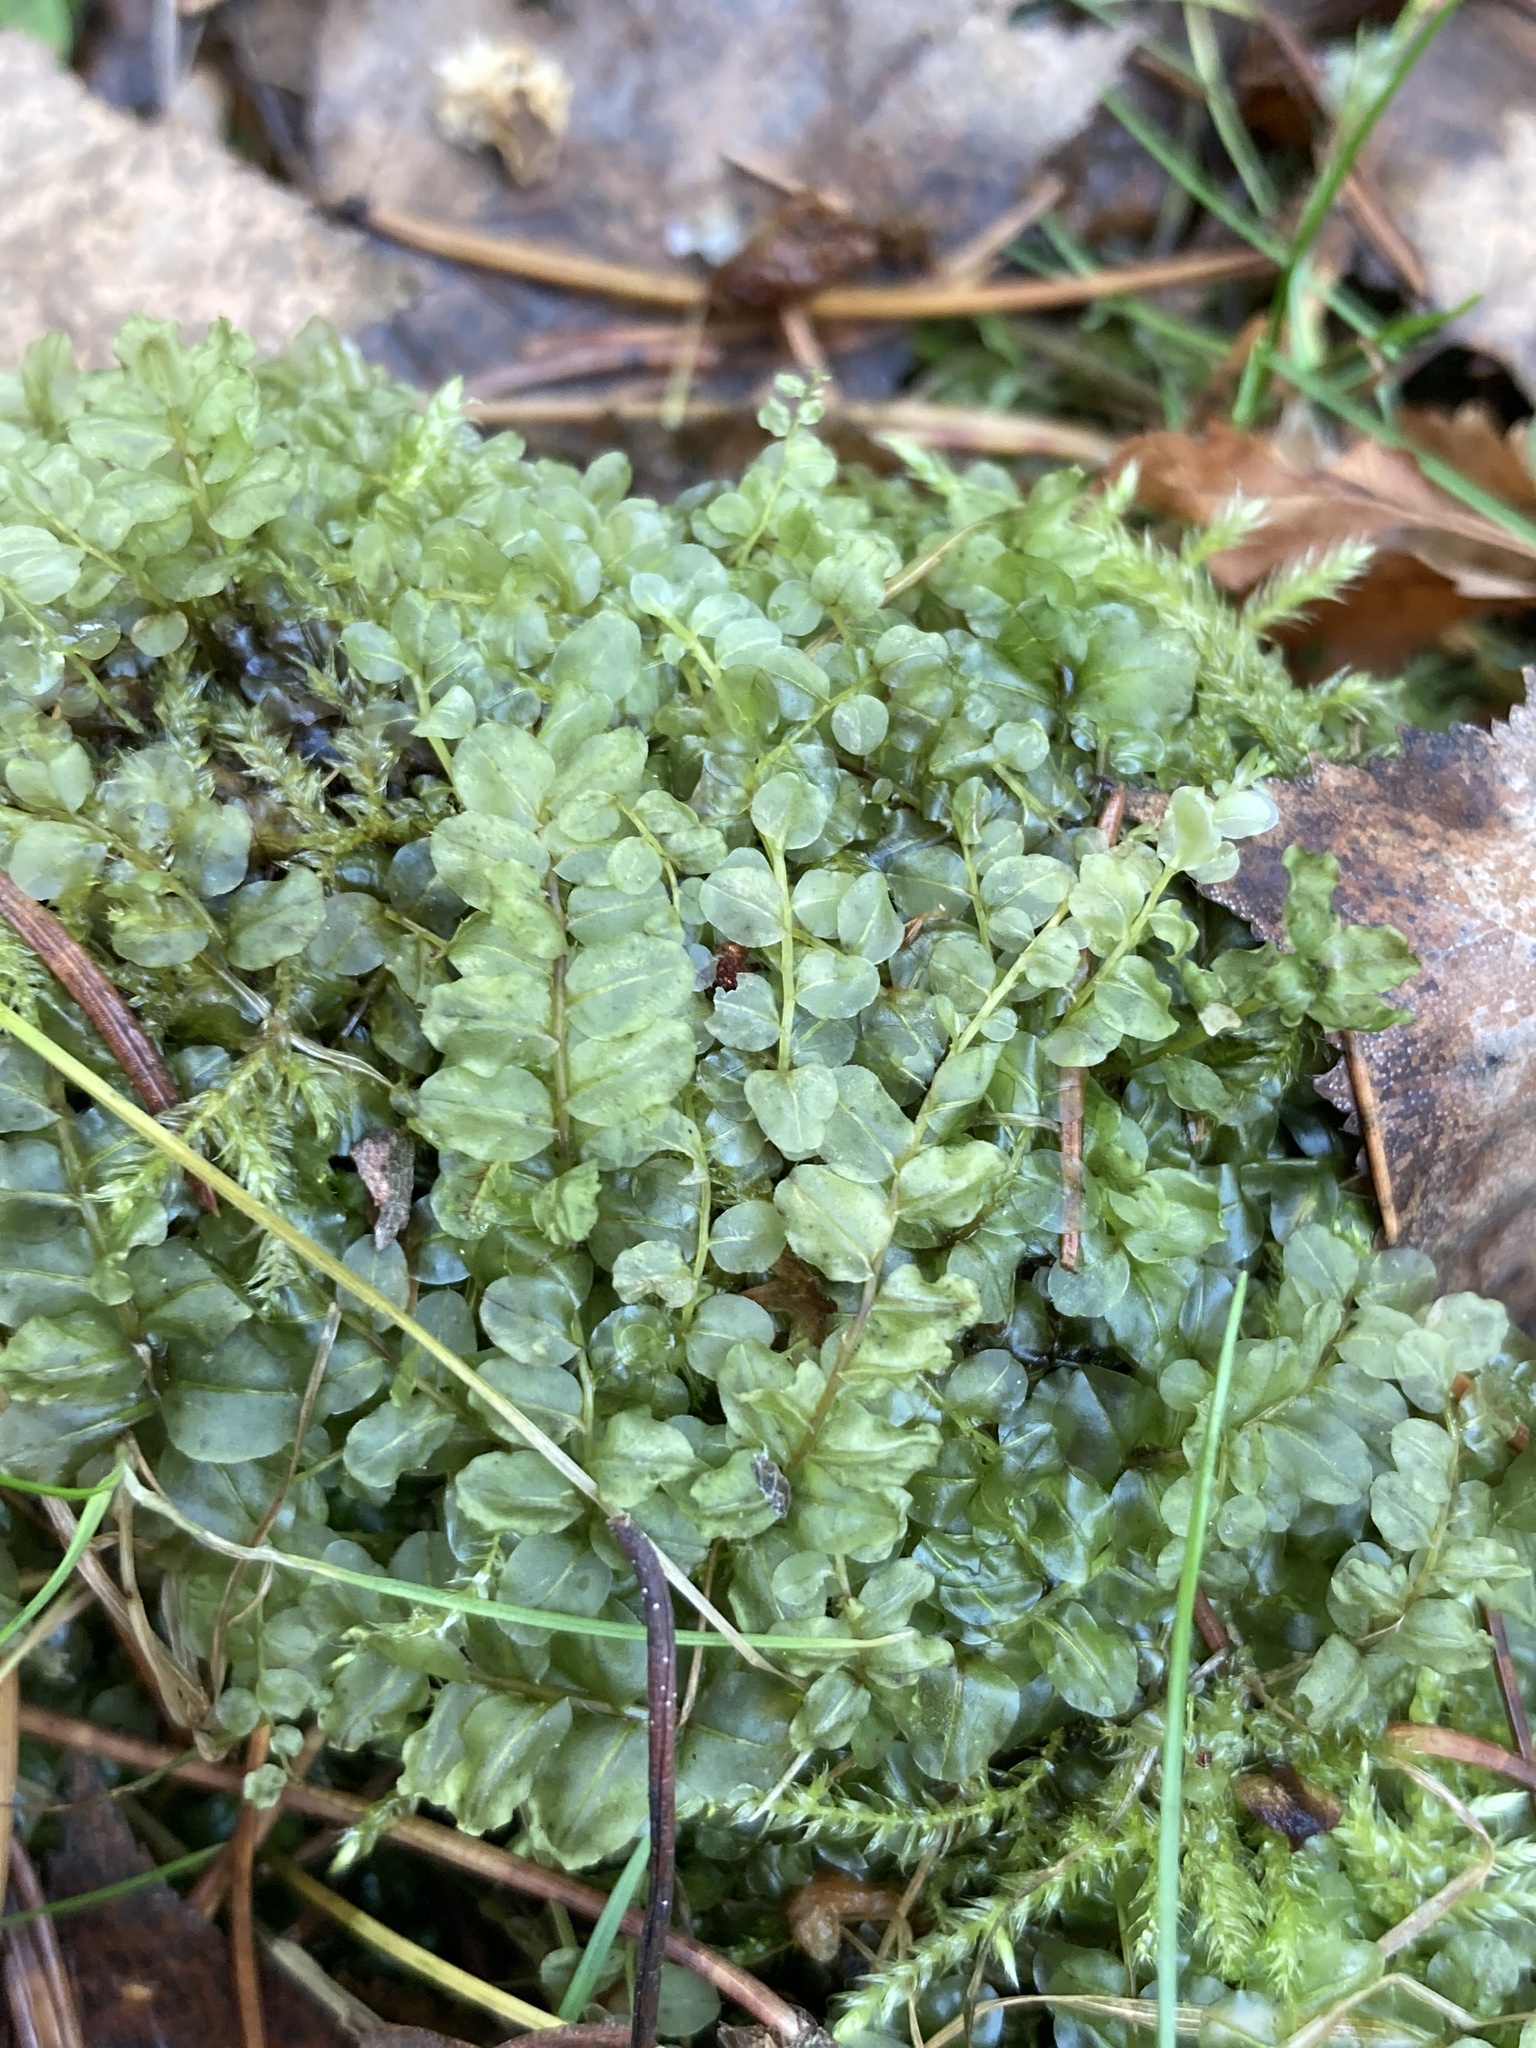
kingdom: Plantae
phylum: Bryophyta
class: Bryopsida
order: Bryales
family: Mniaceae
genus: Plagiomnium
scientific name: Plagiomnium affine
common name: Many-fruited thyme-moss
